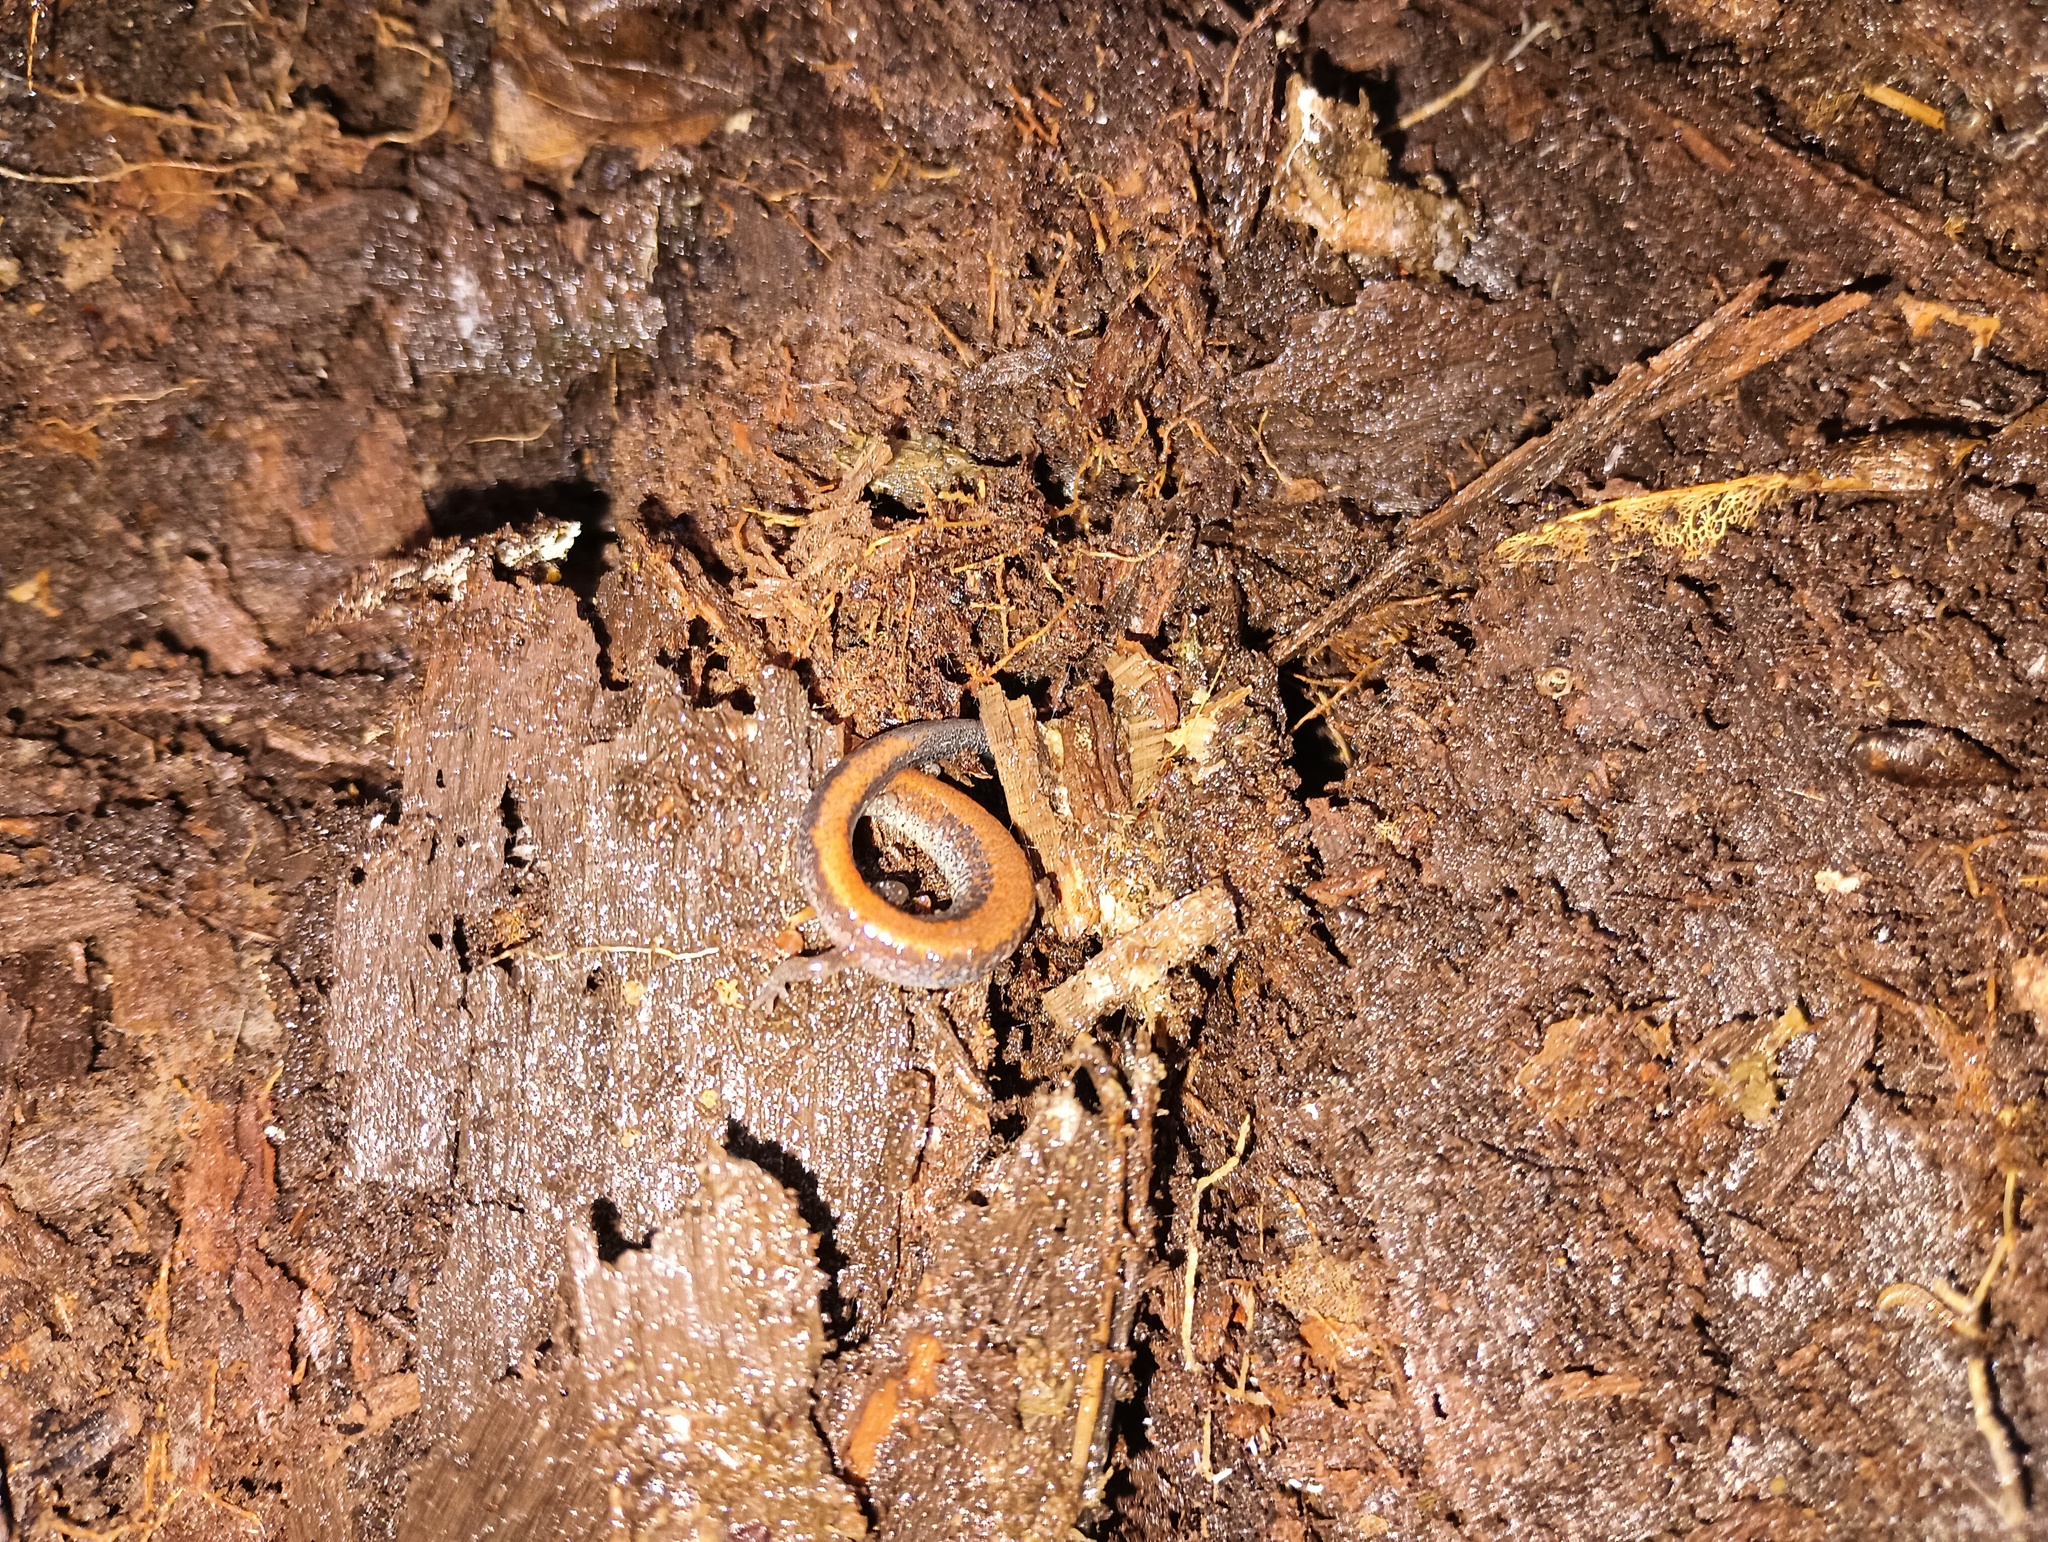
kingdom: Animalia
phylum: Chordata
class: Amphibia
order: Caudata
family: Plethodontidae
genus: Plethodon
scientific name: Plethodon cinereus
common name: Redback salamander
